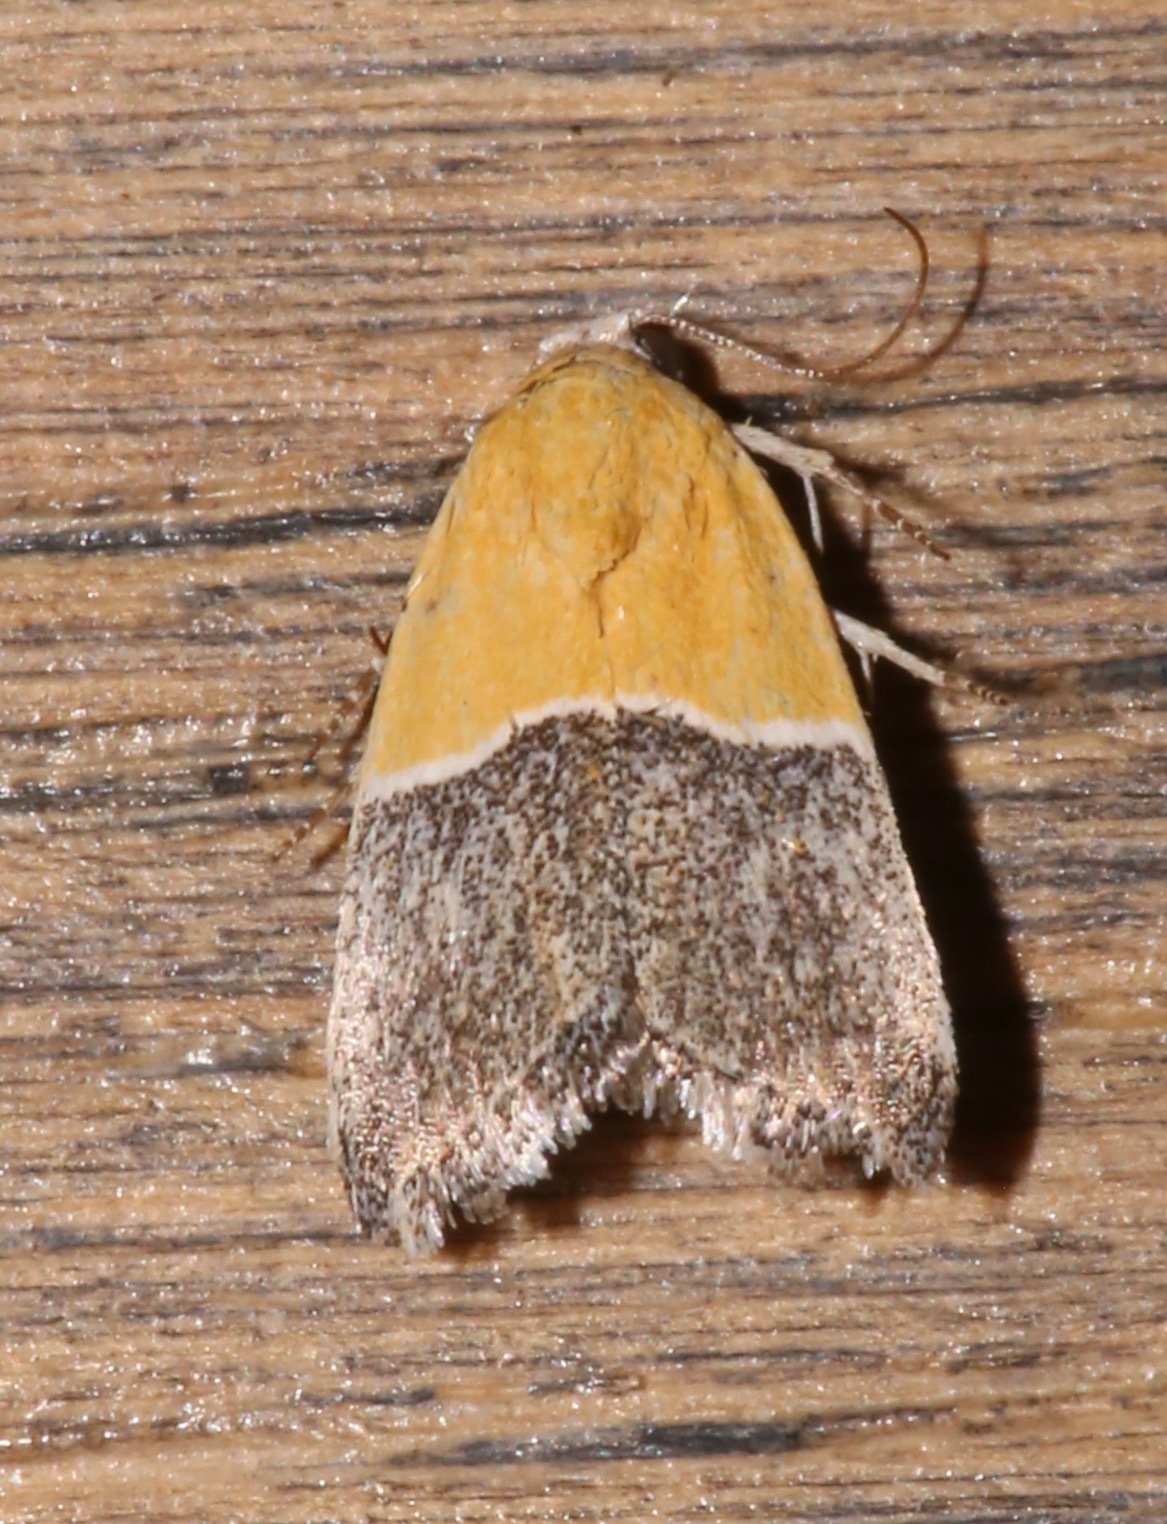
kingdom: Animalia
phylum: Arthropoda
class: Insecta
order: Lepidoptera
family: Noctuidae
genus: Acontia
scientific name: Acontia clausula
